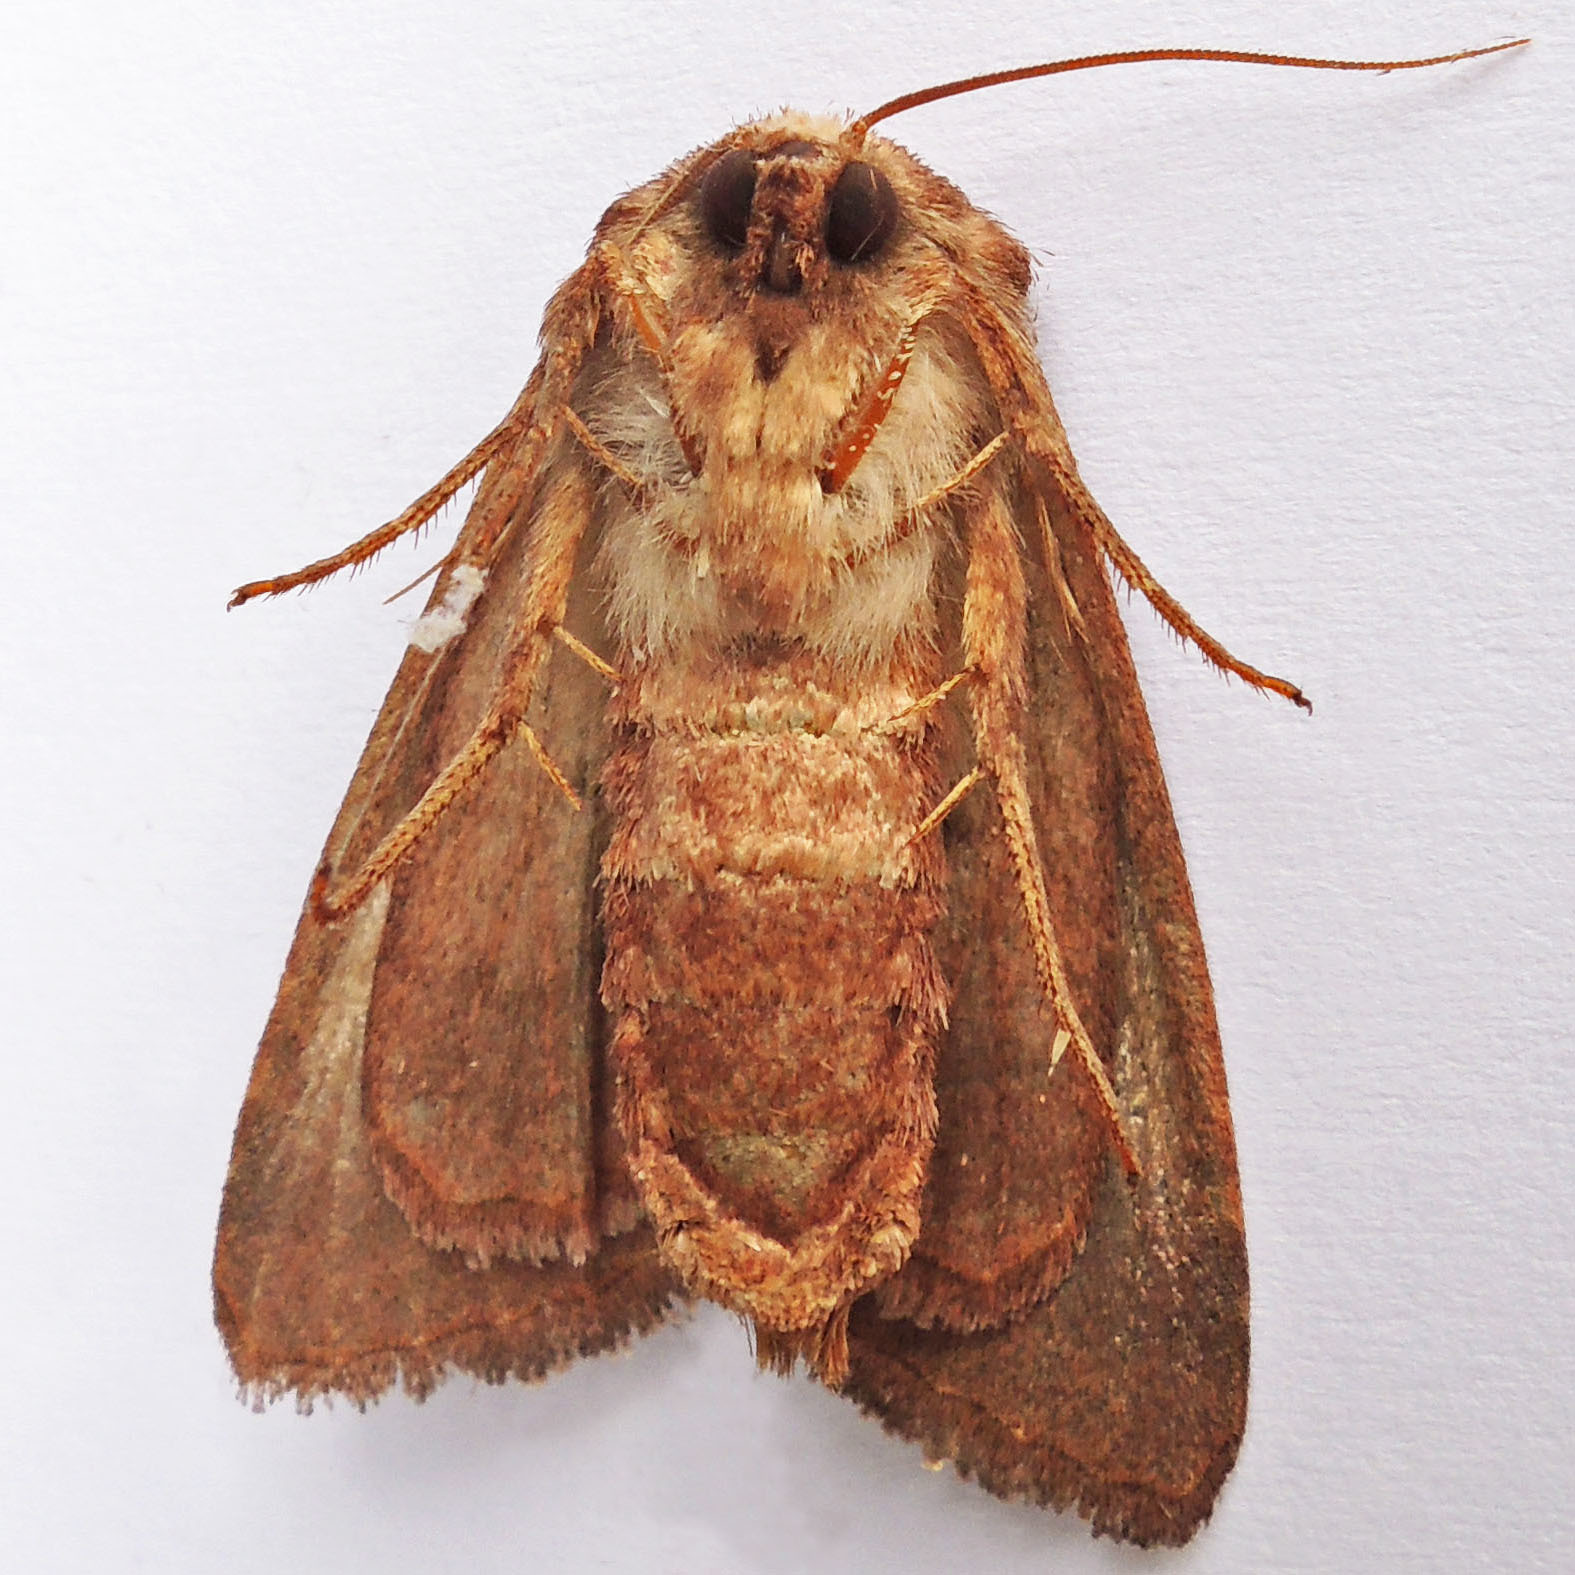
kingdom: Animalia
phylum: Arthropoda
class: Insecta
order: Lepidoptera
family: Noctuidae
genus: Nephelodes
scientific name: Nephelodes minians
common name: Bronzed cutworm
